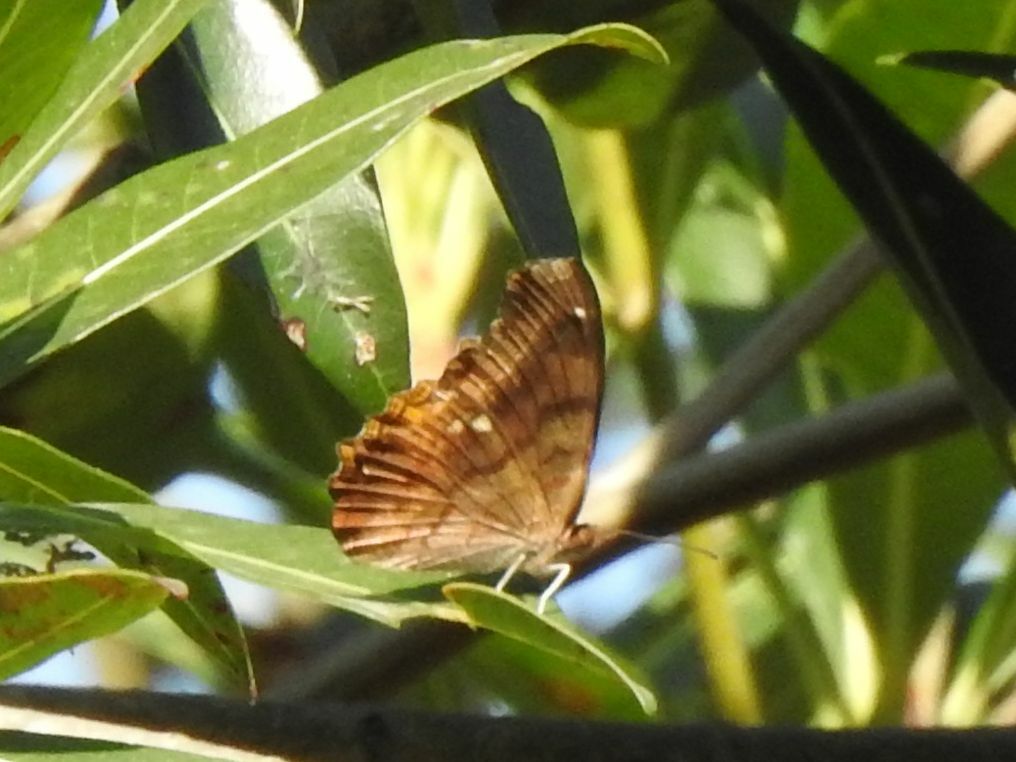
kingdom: Animalia
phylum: Arthropoda
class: Insecta
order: Lepidoptera
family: Nymphalidae
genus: Eurytela
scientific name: Eurytela dryope
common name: Golden piper
